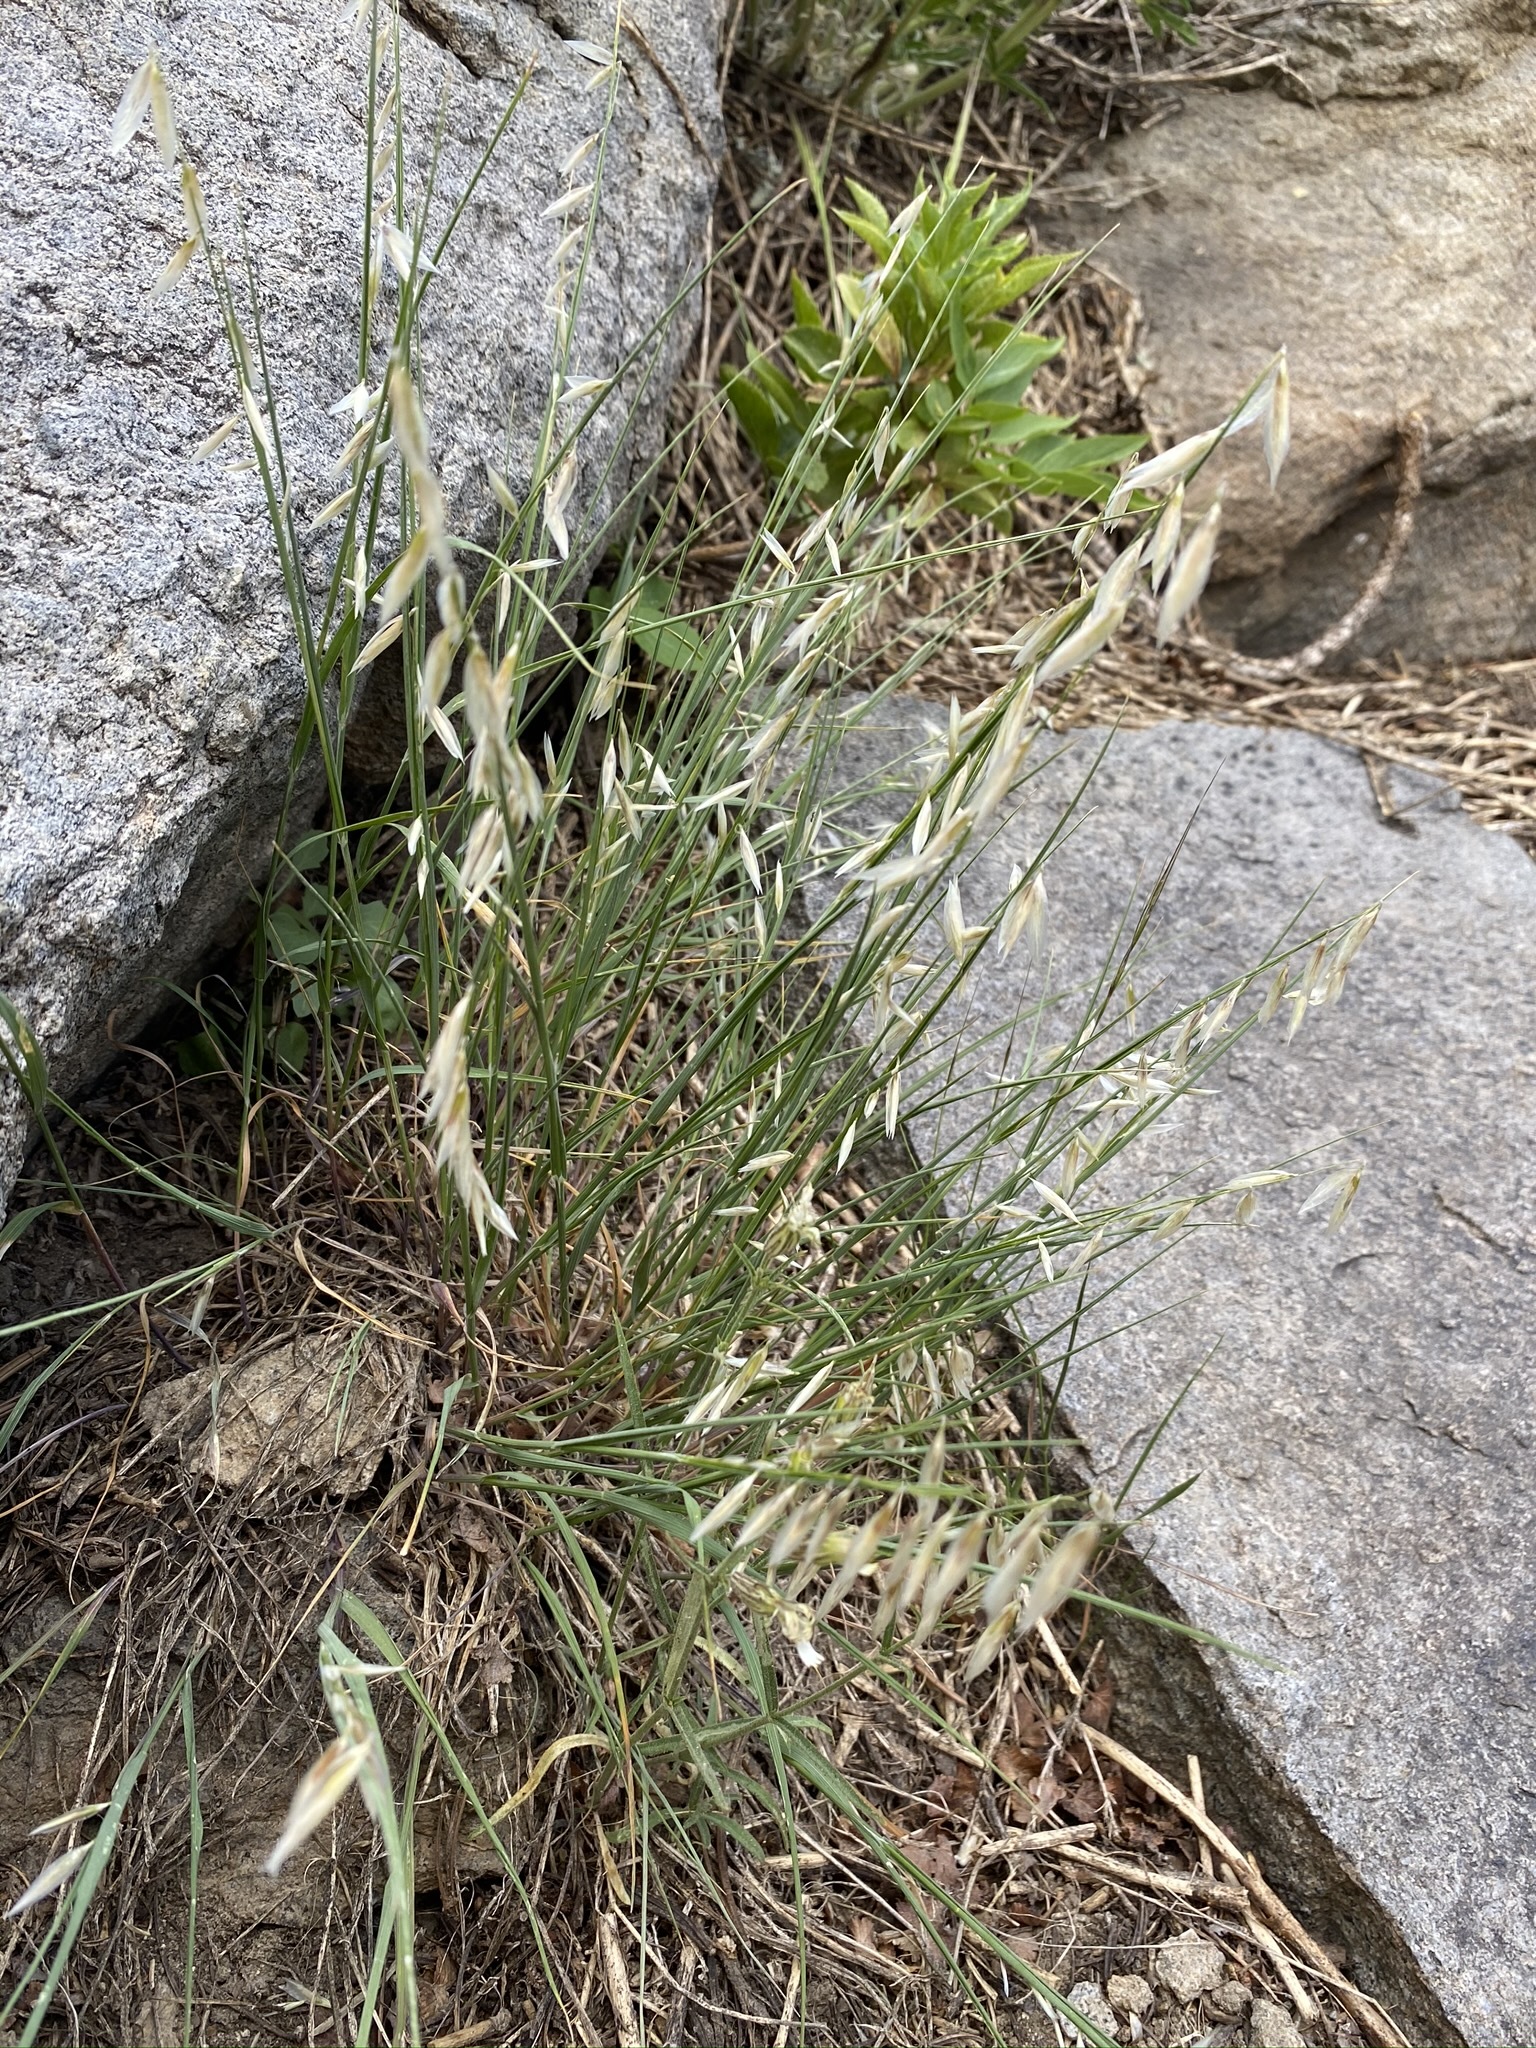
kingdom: Plantae
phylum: Tracheophyta
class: Liliopsida
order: Poales
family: Poaceae
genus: Melica
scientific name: Melica stricta
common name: Rock melic
